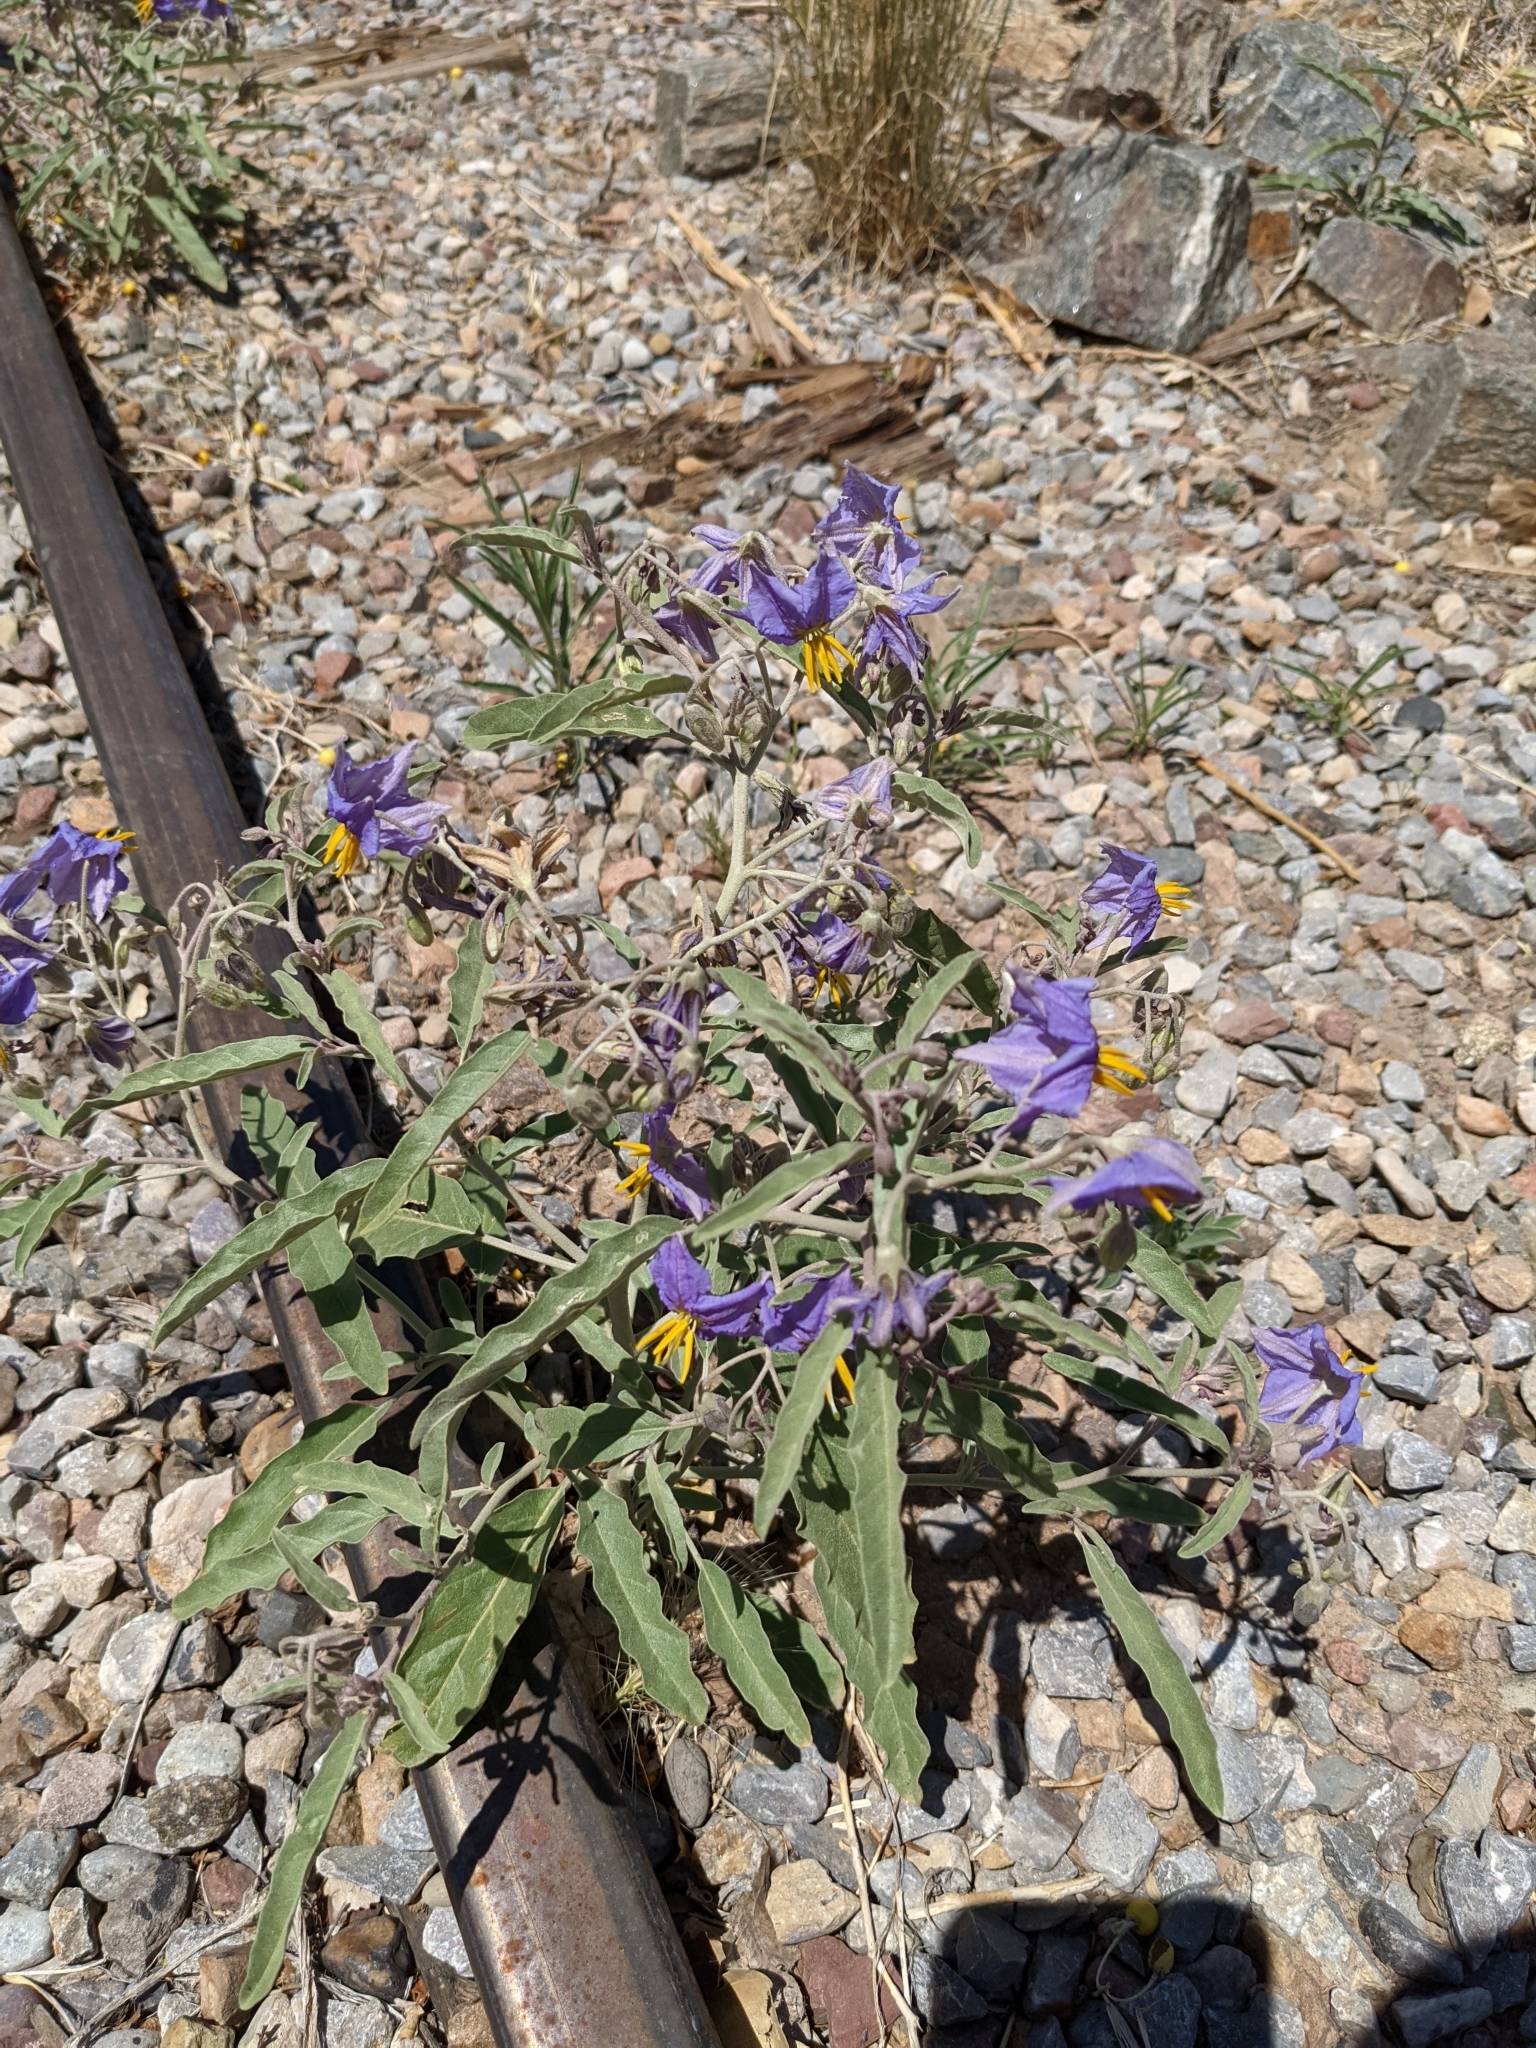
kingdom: Plantae
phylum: Tracheophyta
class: Magnoliopsida
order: Solanales
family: Solanaceae
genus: Solanum
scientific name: Solanum elaeagnifolium
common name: Silverleaf nightshade
